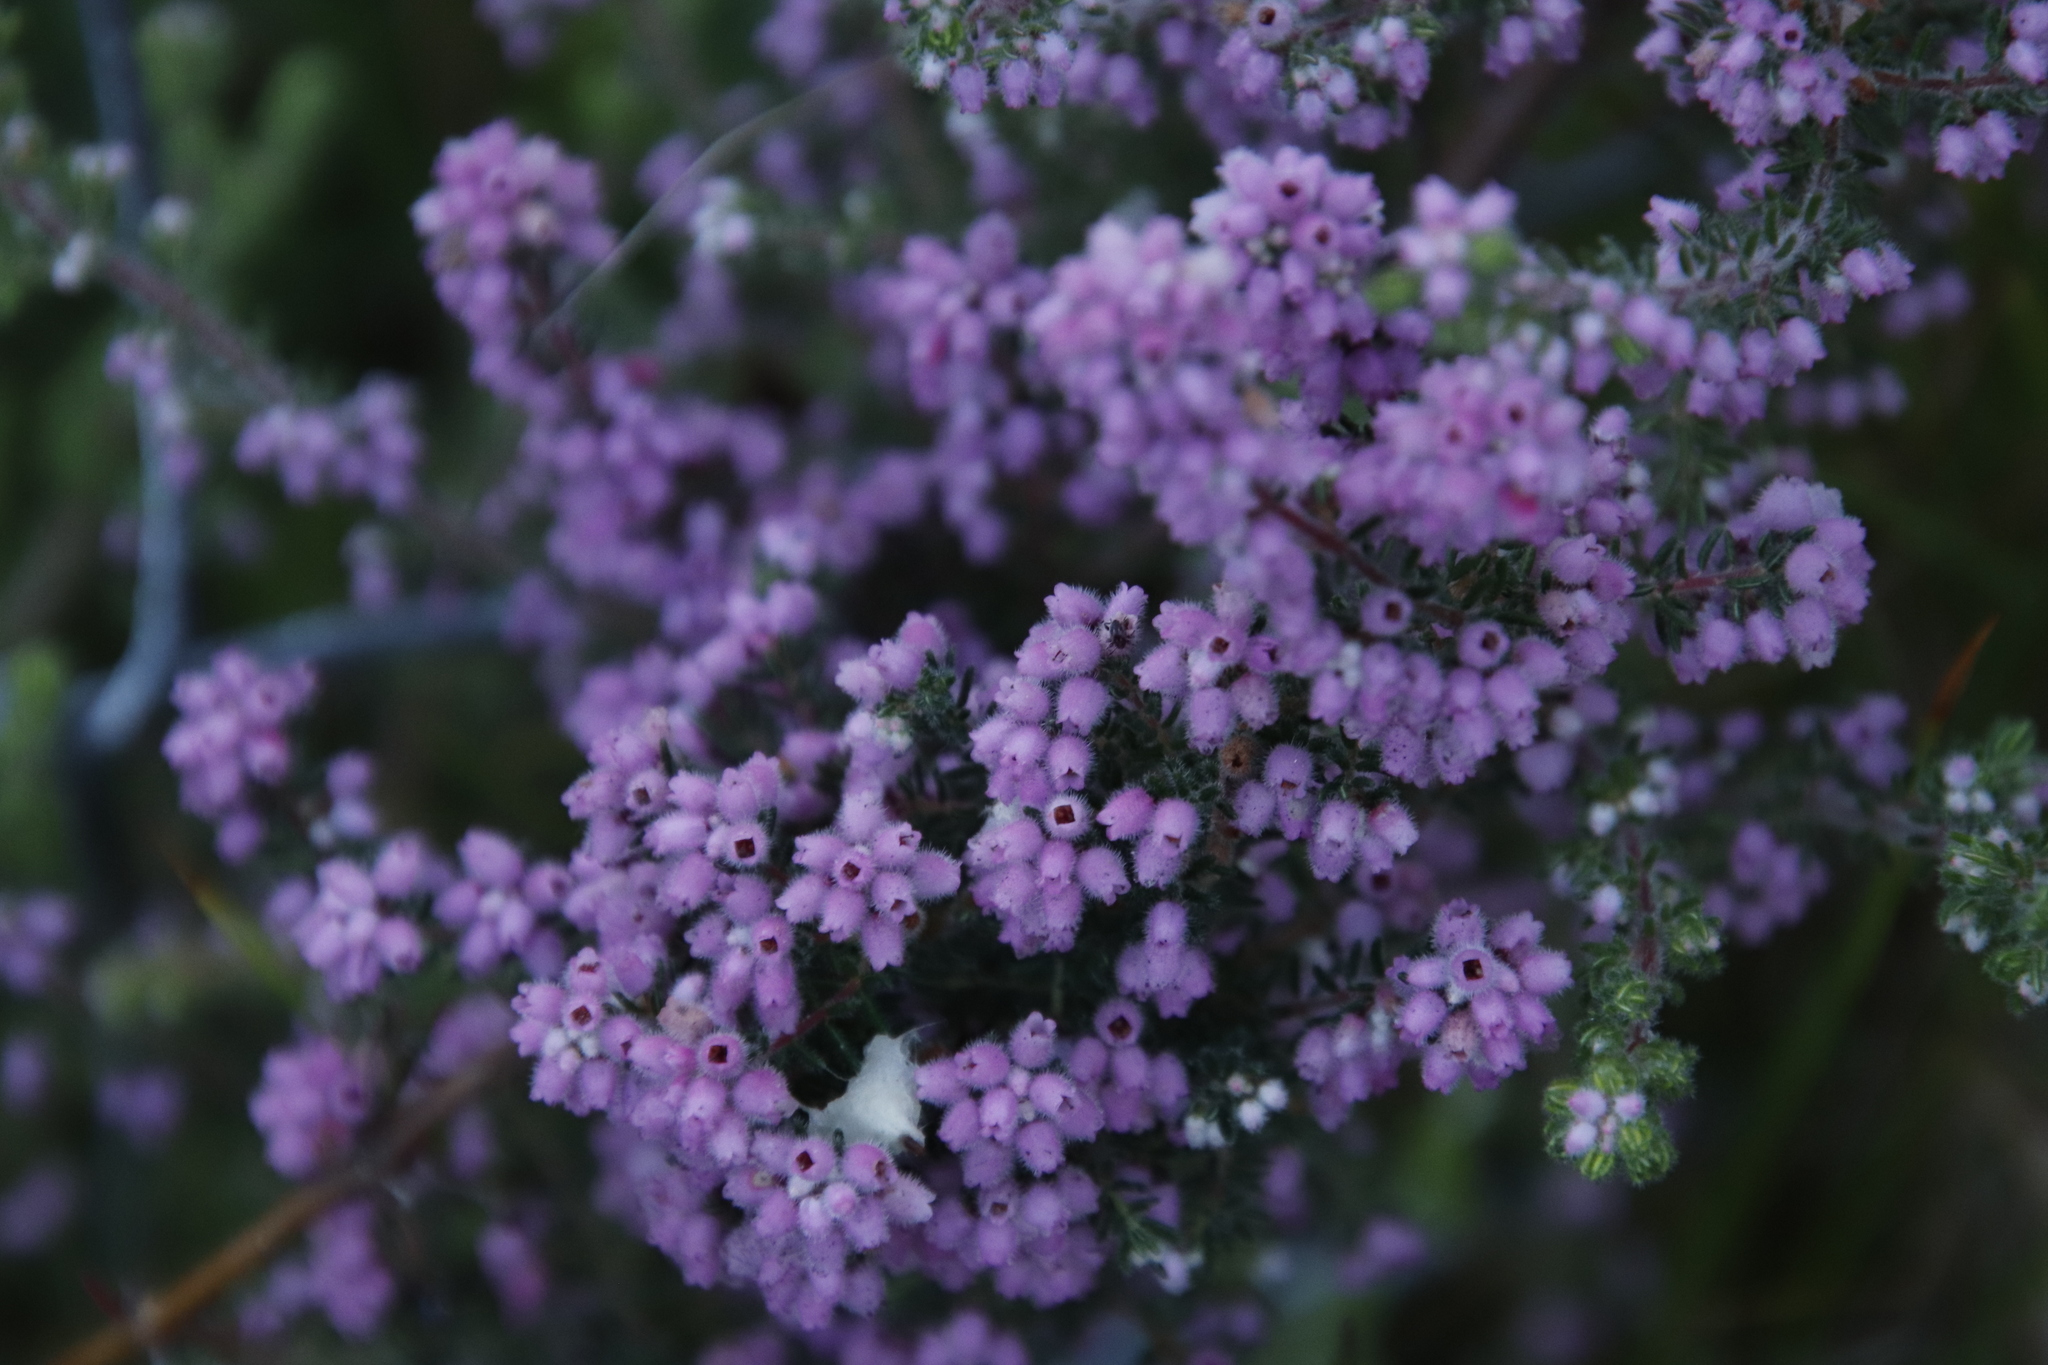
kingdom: Plantae
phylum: Tracheophyta
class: Magnoliopsida
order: Ericales
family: Ericaceae
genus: Erica
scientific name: Erica parviflora
